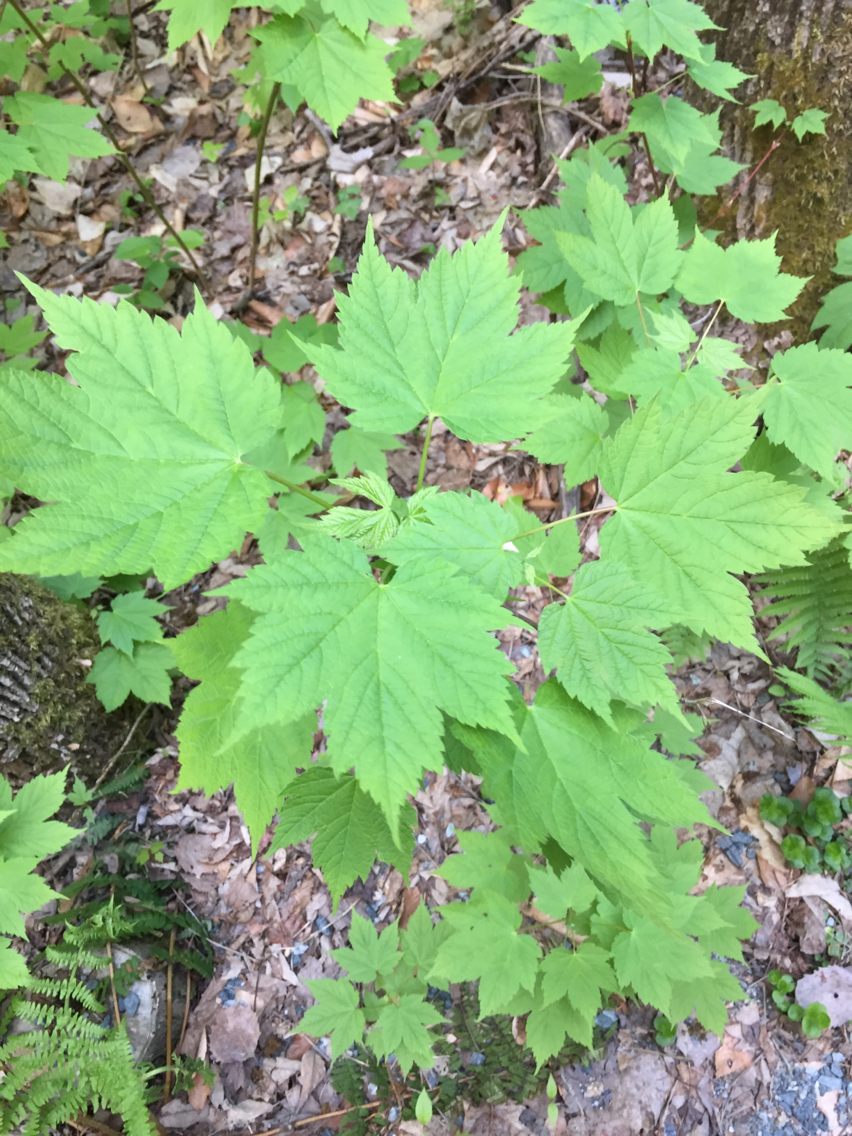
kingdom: Plantae
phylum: Tracheophyta
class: Magnoliopsida
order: Sapindales
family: Sapindaceae
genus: Acer
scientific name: Acer spicatum
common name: Mountain maple
